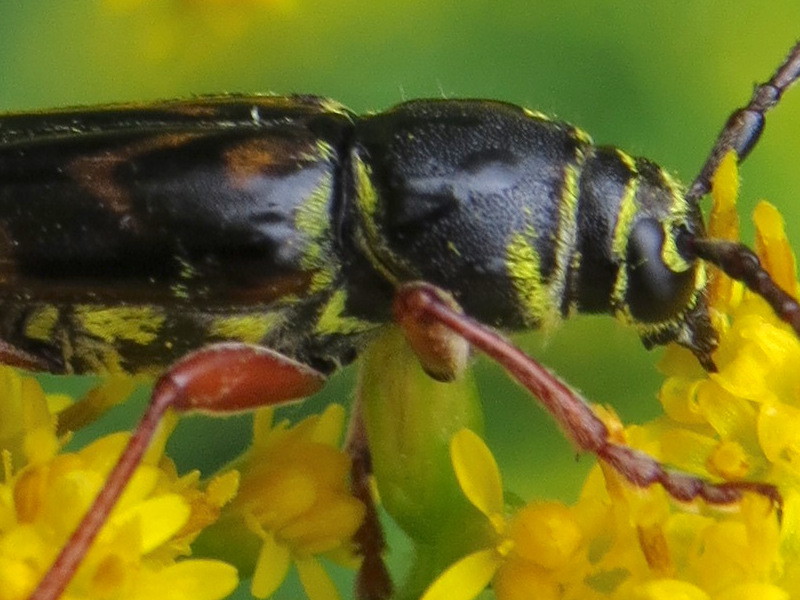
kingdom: Animalia
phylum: Arthropoda
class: Insecta
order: Coleoptera
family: Cerambycidae
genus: Megacyllene
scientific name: Megacyllene robiniae
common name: Locust borer
